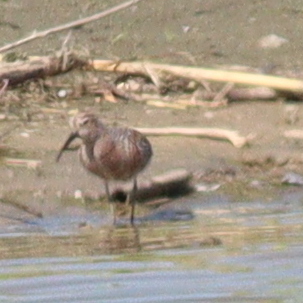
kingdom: Animalia
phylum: Chordata
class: Aves
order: Charadriiformes
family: Scolopacidae
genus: Calidris
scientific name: Calidris ferruginea
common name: Curlew sandpiper
